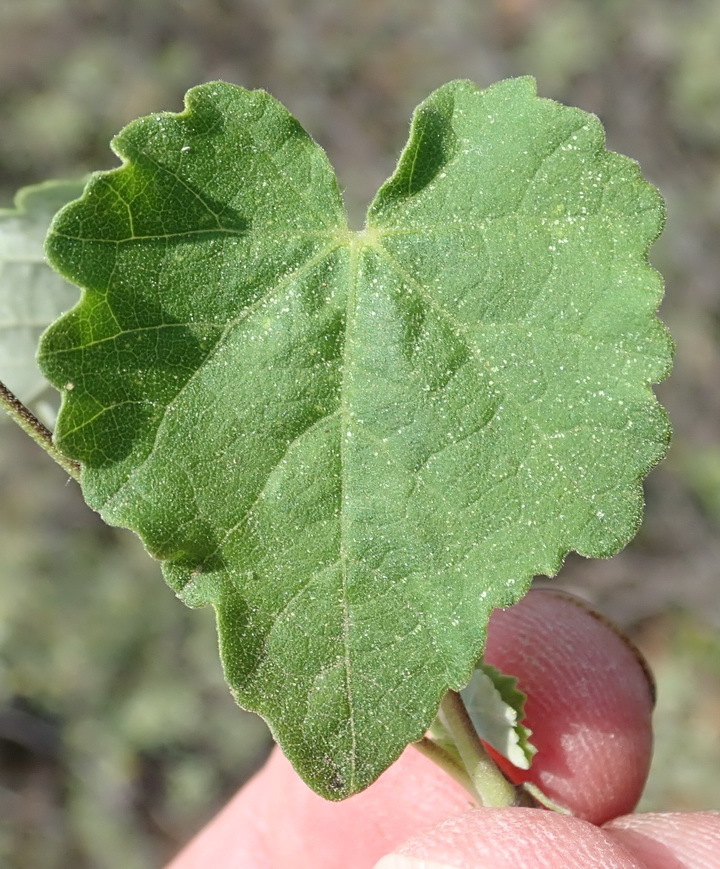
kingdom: Plantae
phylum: Tracheophyta
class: Magnoliopsida
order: Malvales
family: Malvaceae
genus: Abutilon
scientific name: Abutilon sonneratianum
